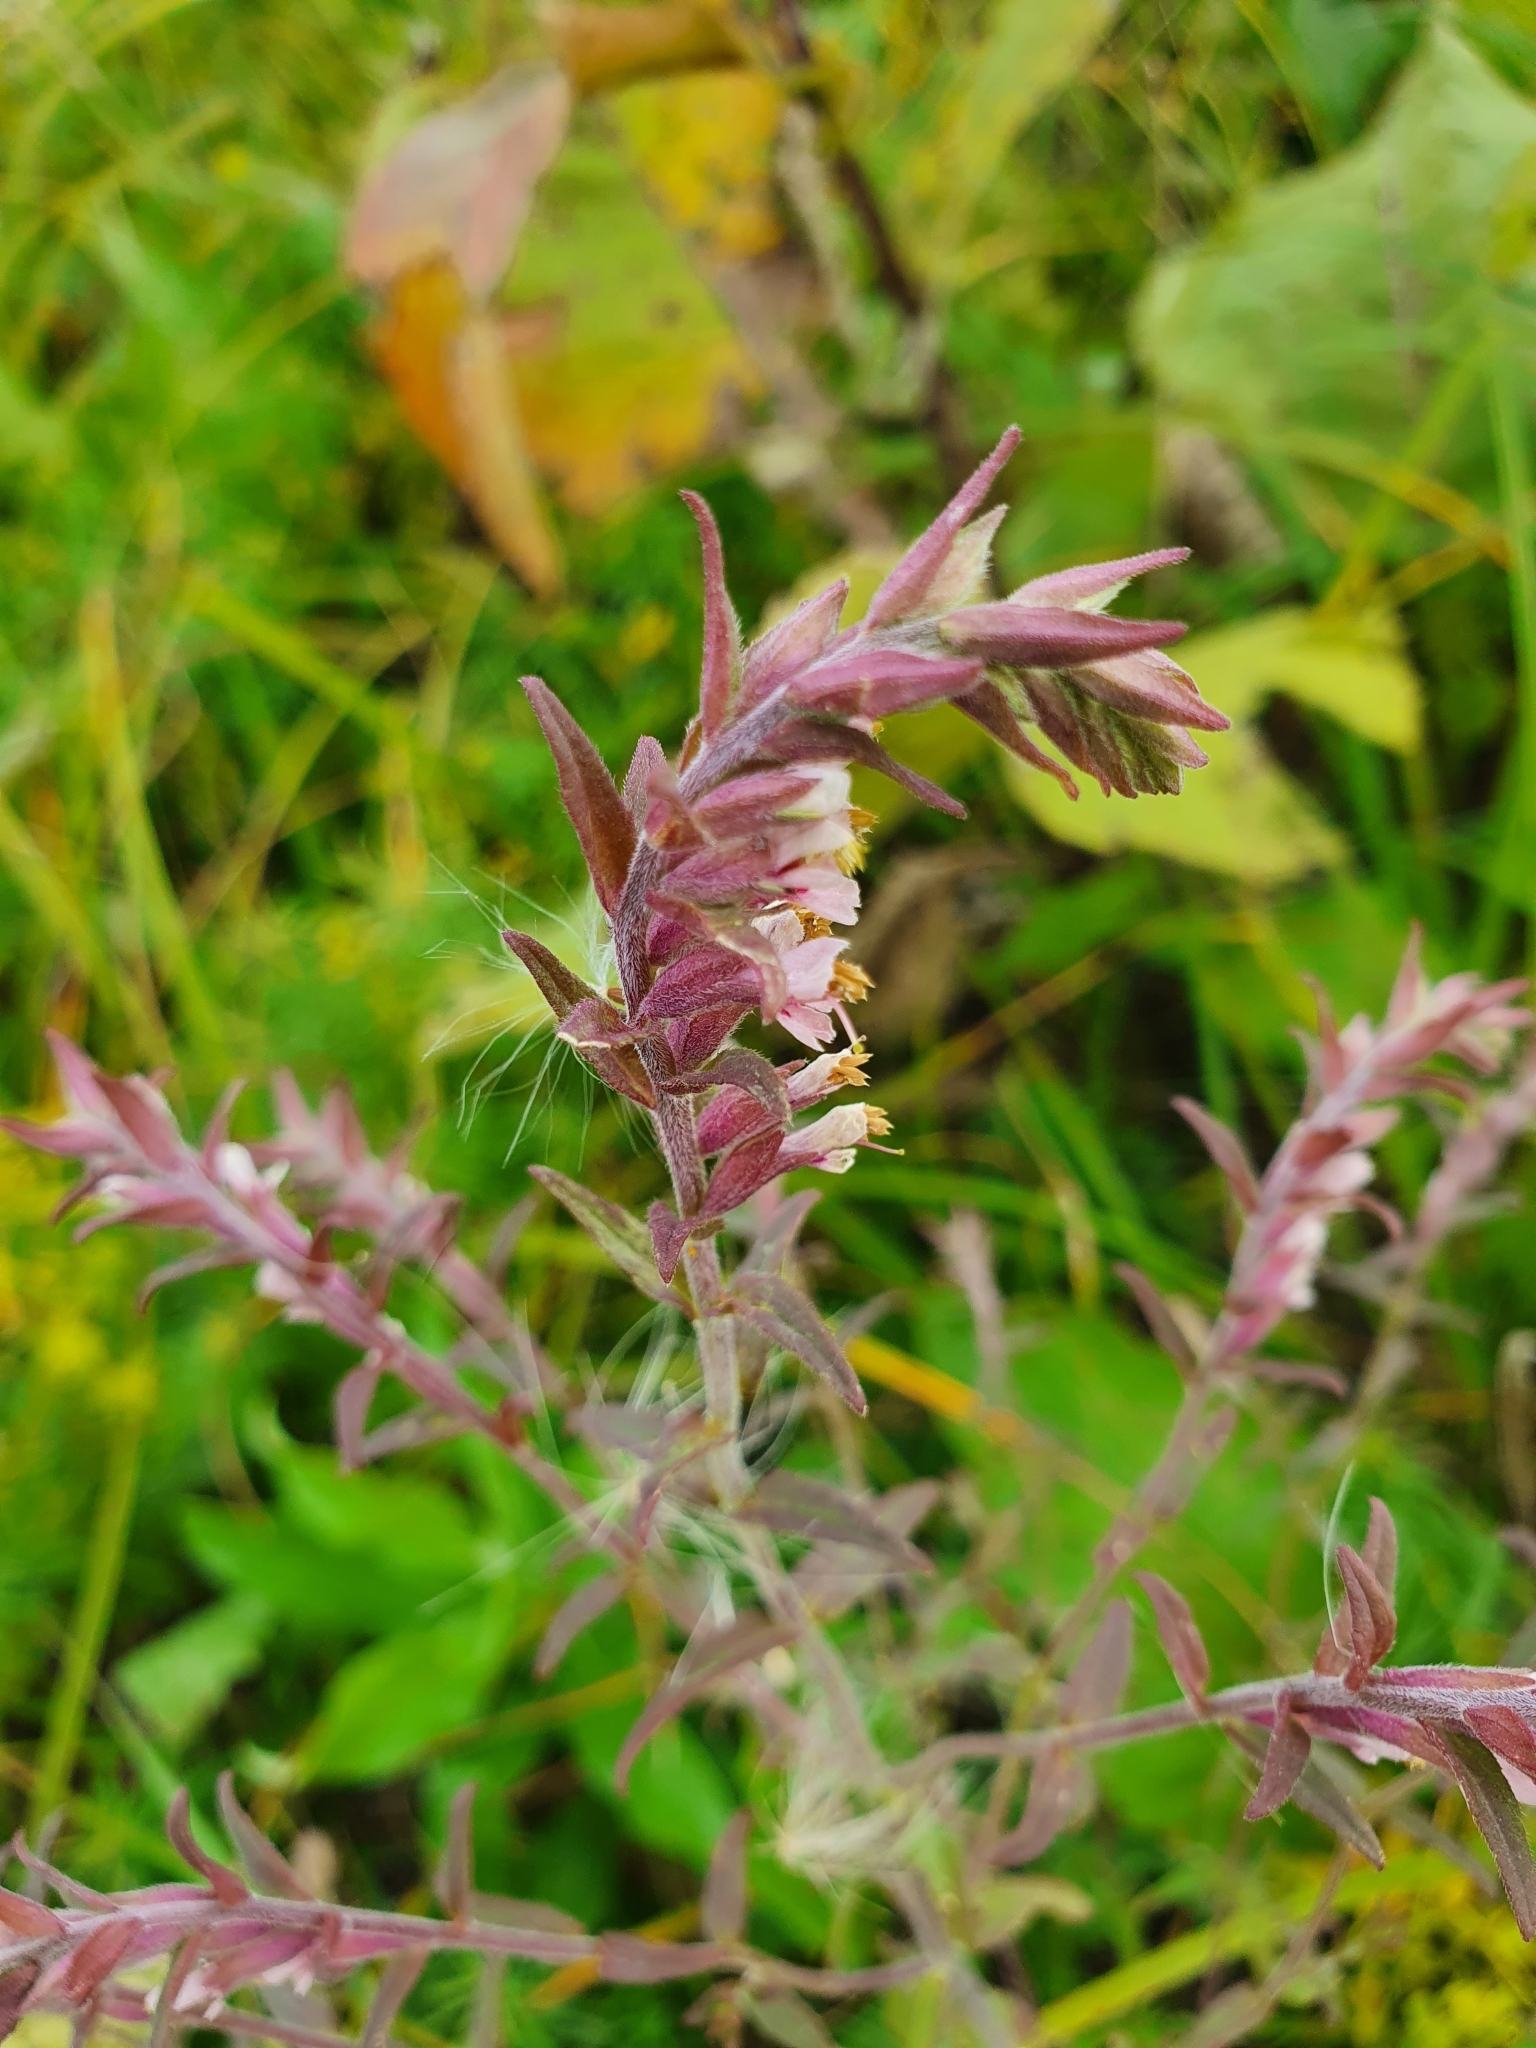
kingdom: Plantae
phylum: Tracheophyta
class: Magnoliopsida
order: Lamiales
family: Orobanchaceae
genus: Odontites
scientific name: Odontites vulgaris
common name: Broomrape
